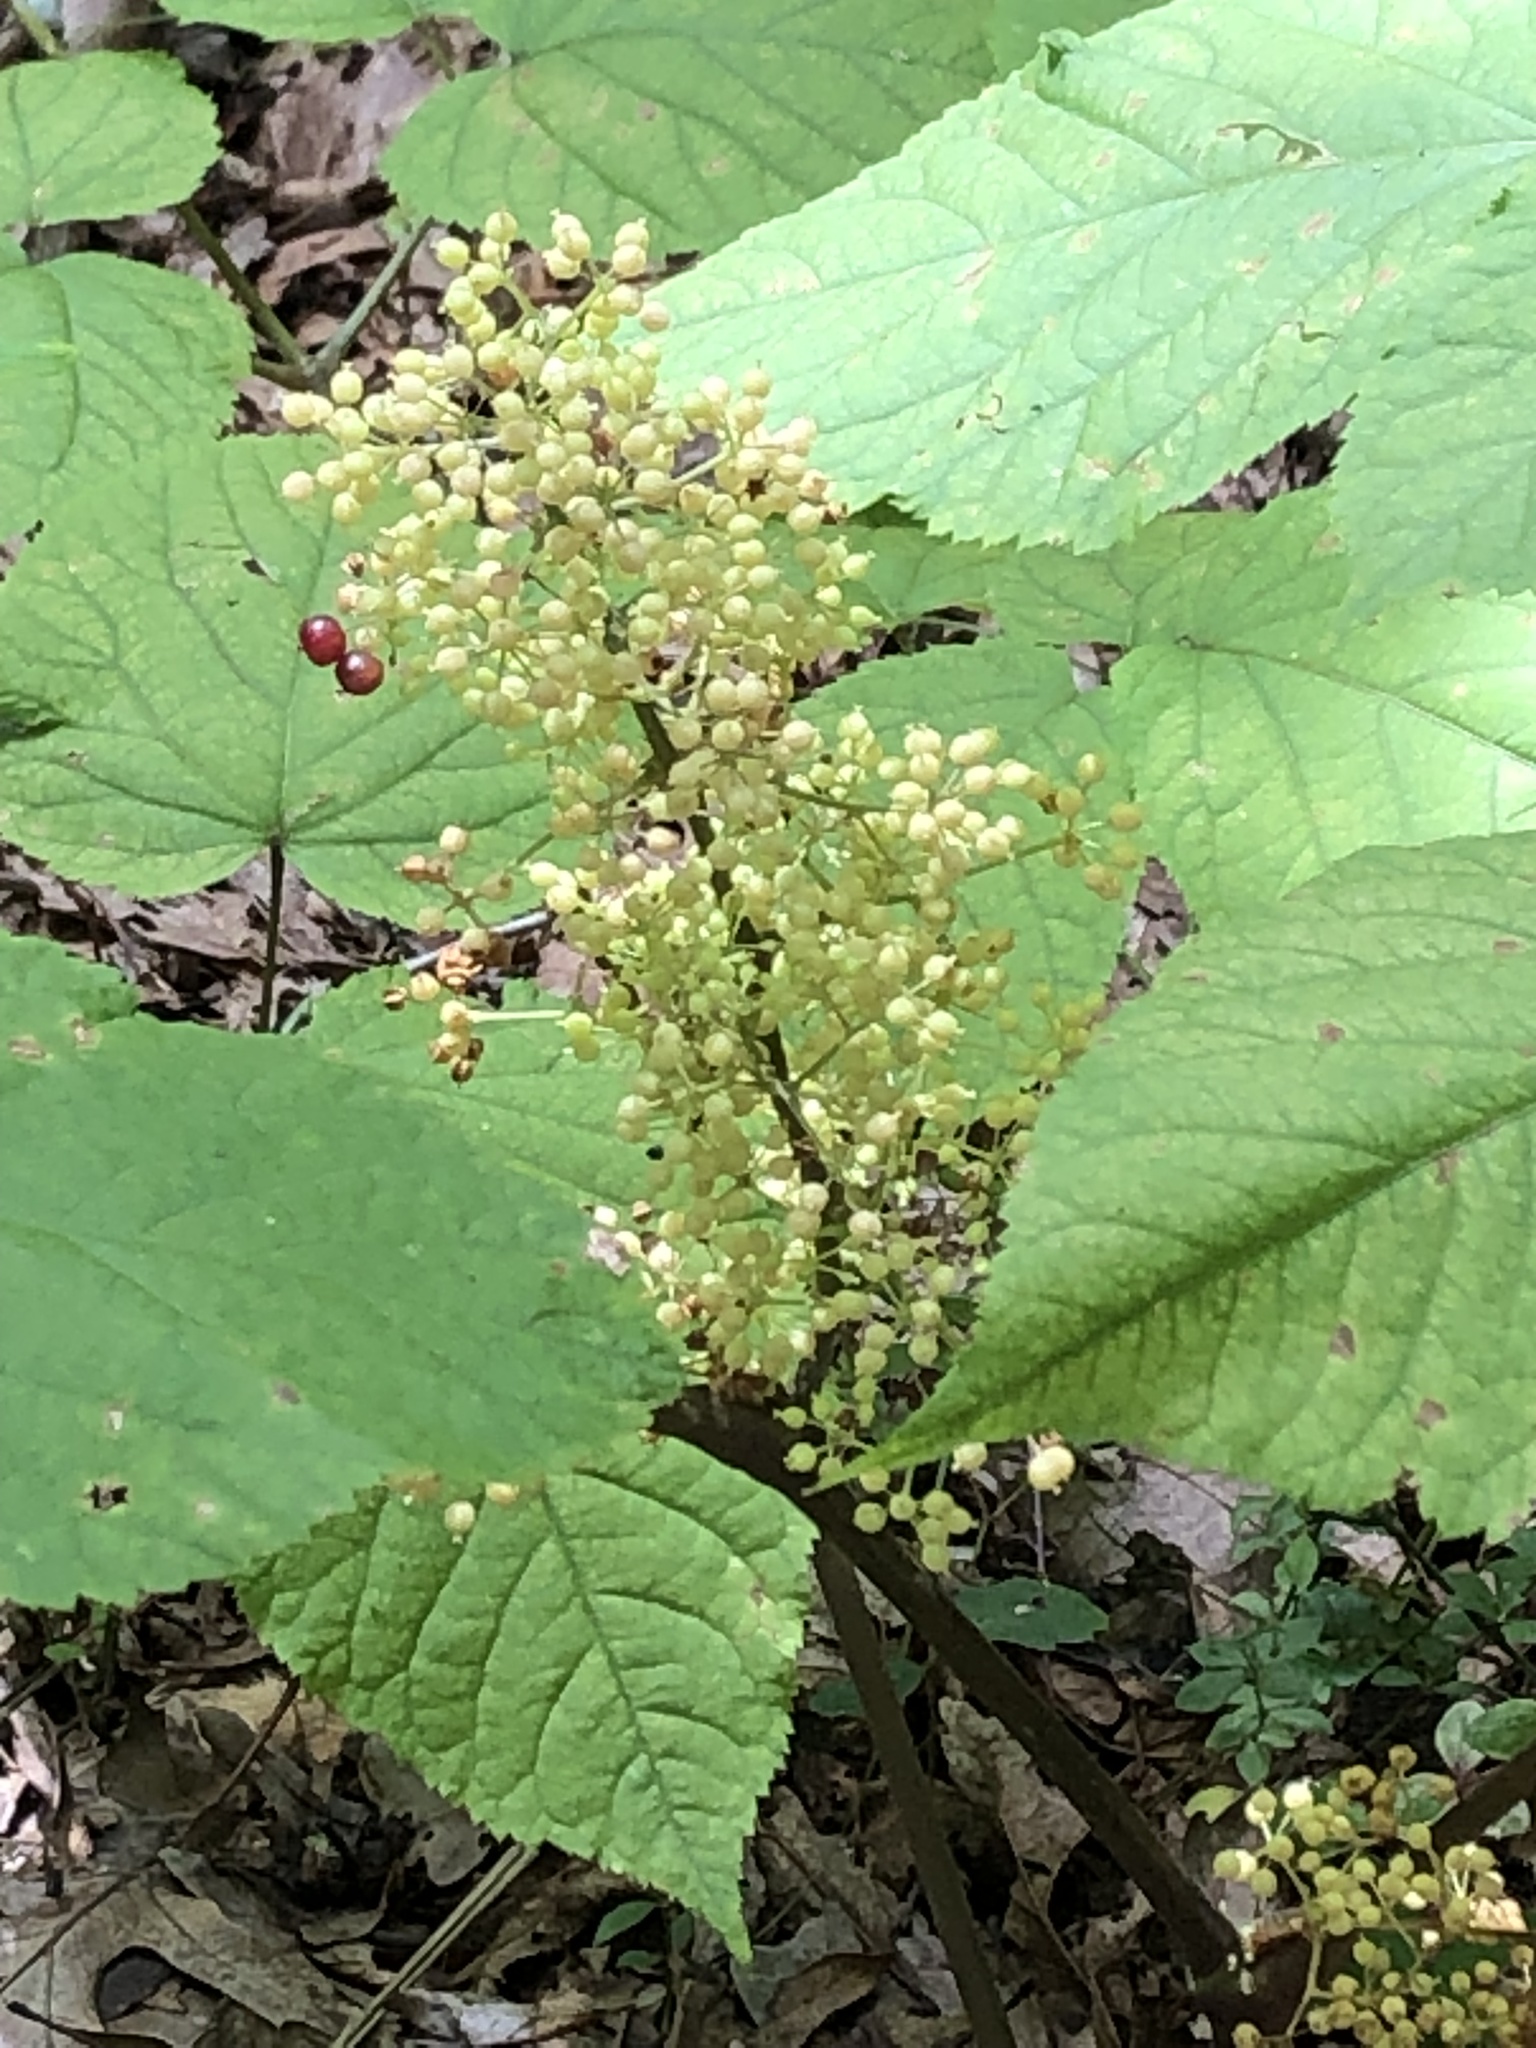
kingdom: Plantae
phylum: Tracheophyta
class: Magnoliopsida
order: Apiales
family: Araliaceae
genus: Aralia
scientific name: Aralia racemosa
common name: American-spikenard
